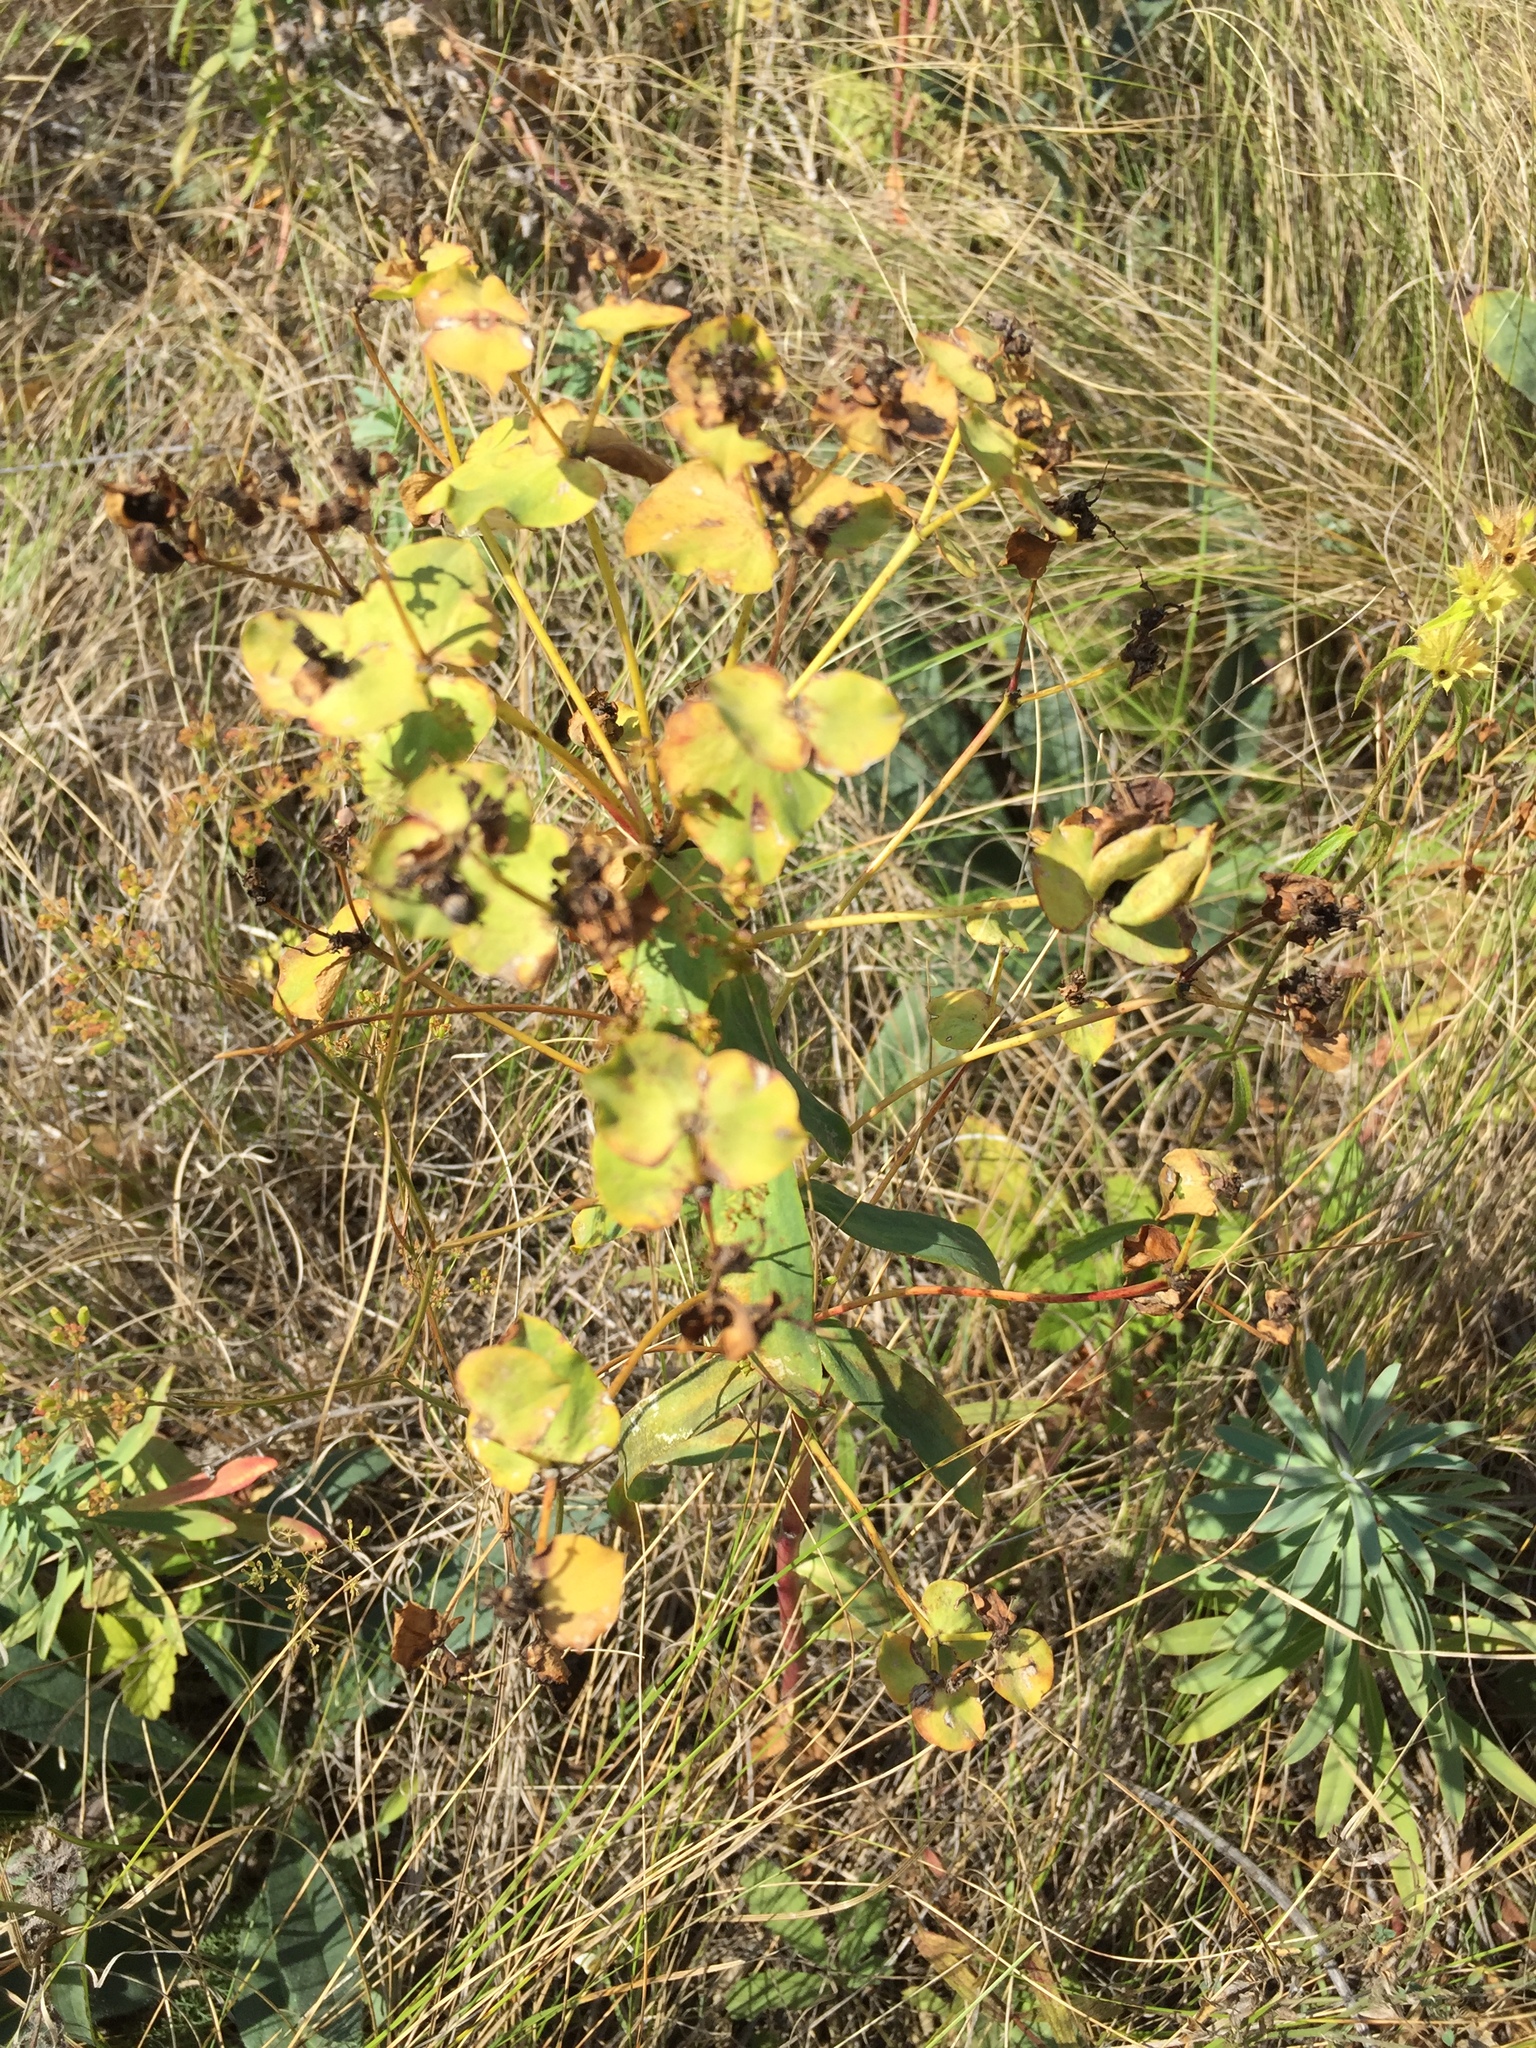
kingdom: Plantae
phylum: Tracheophyta
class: Magnoliopsida
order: Malpighiales
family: Euphorbiaceae
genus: Euphorbia
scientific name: Euphorbia seguieriana
